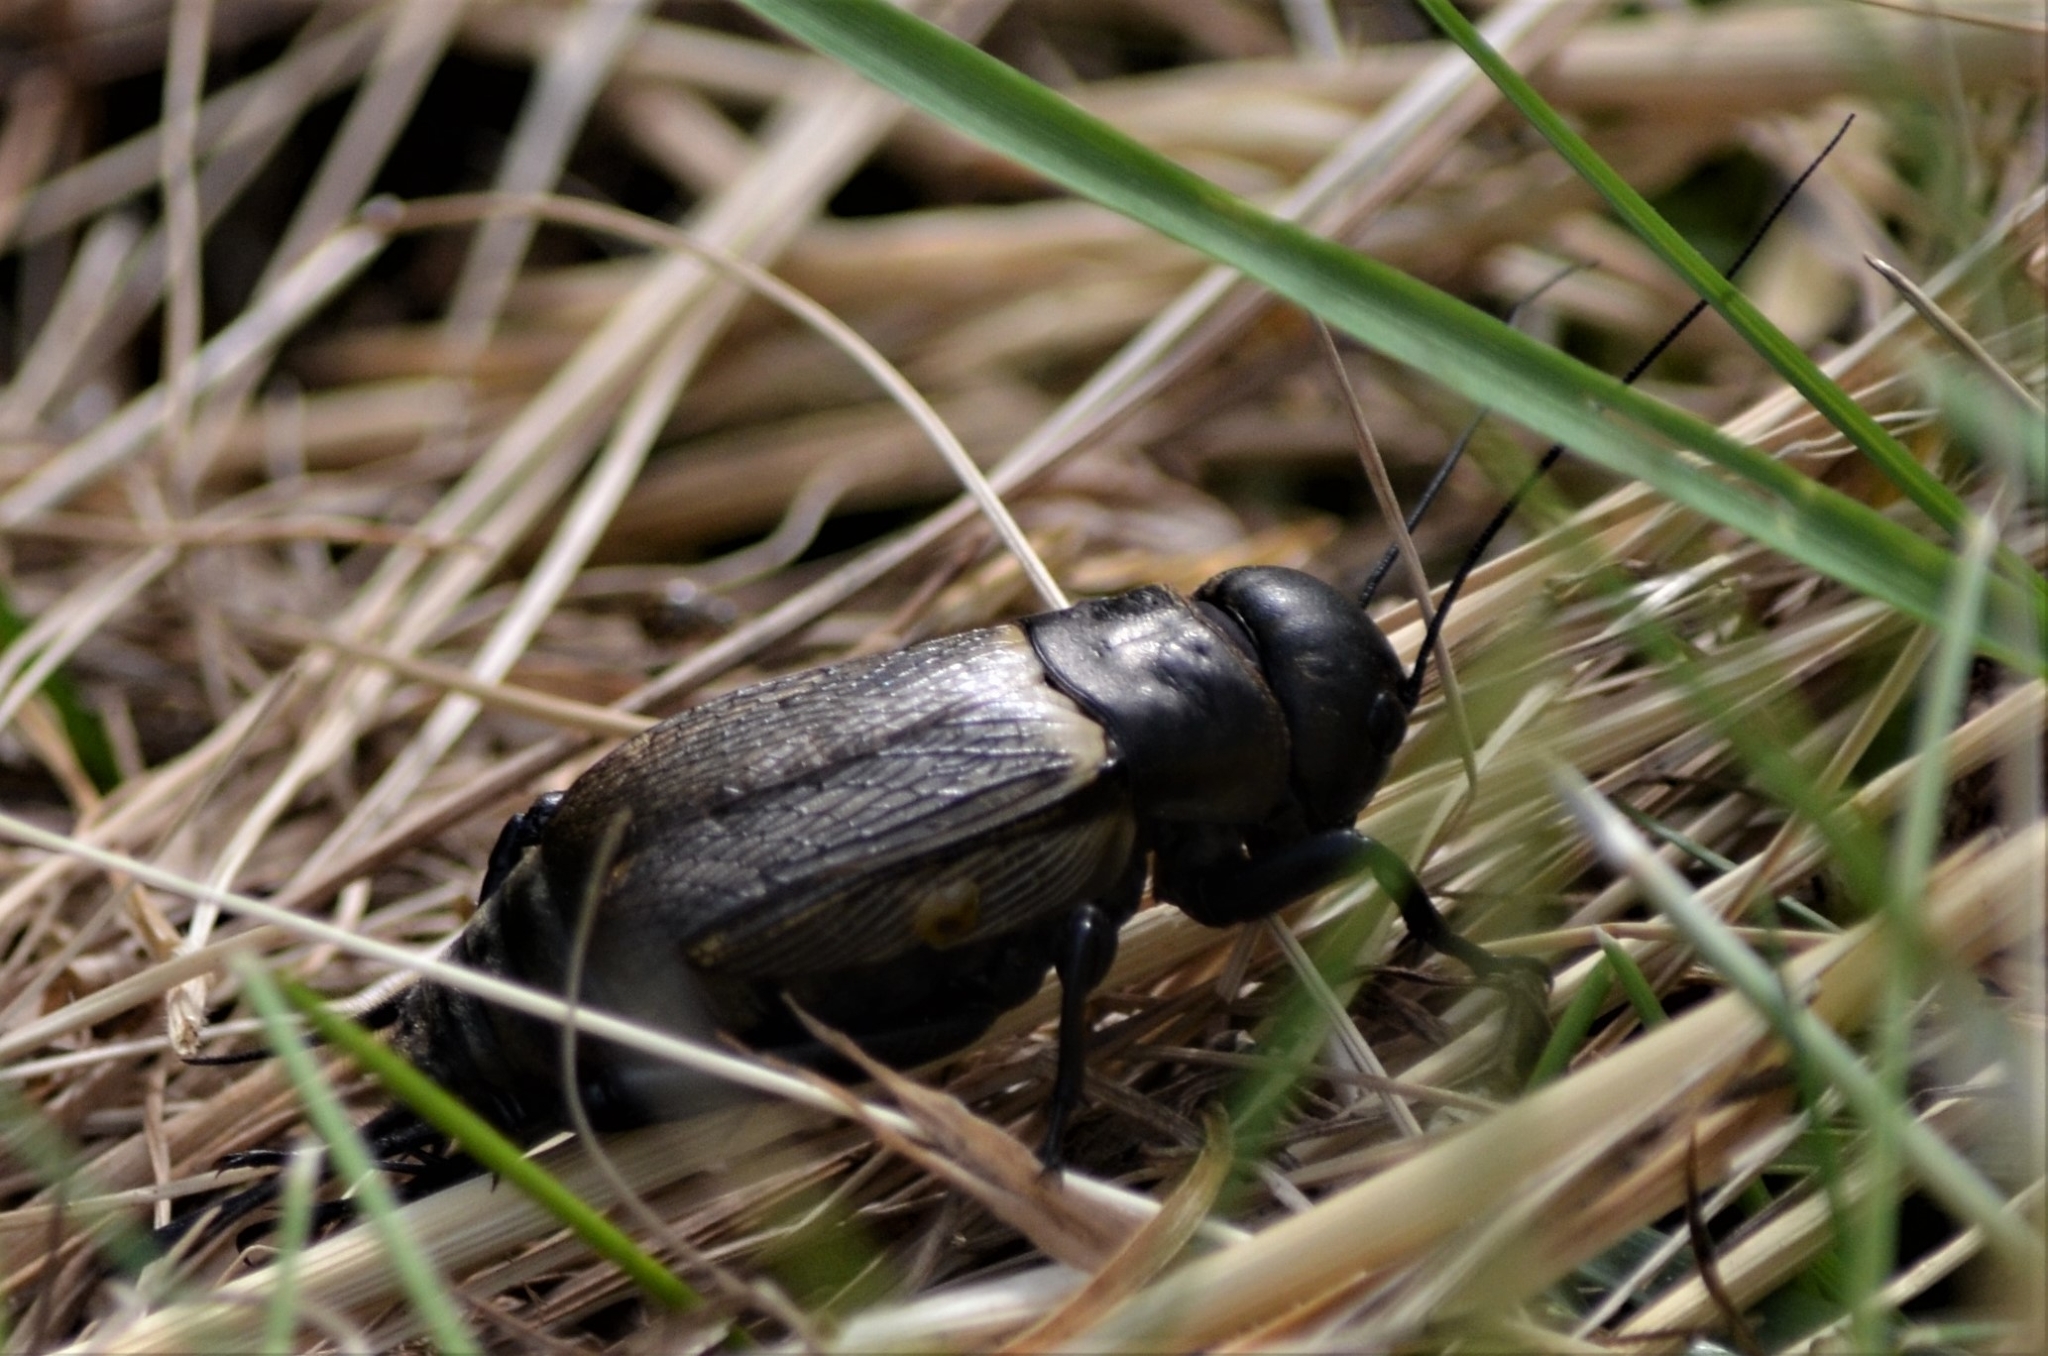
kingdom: Animalia
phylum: Arthropoda
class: Insecta
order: Orthoptera
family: Gryllidae
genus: Gryllus
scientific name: Gryllus campestris
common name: Field cricket
